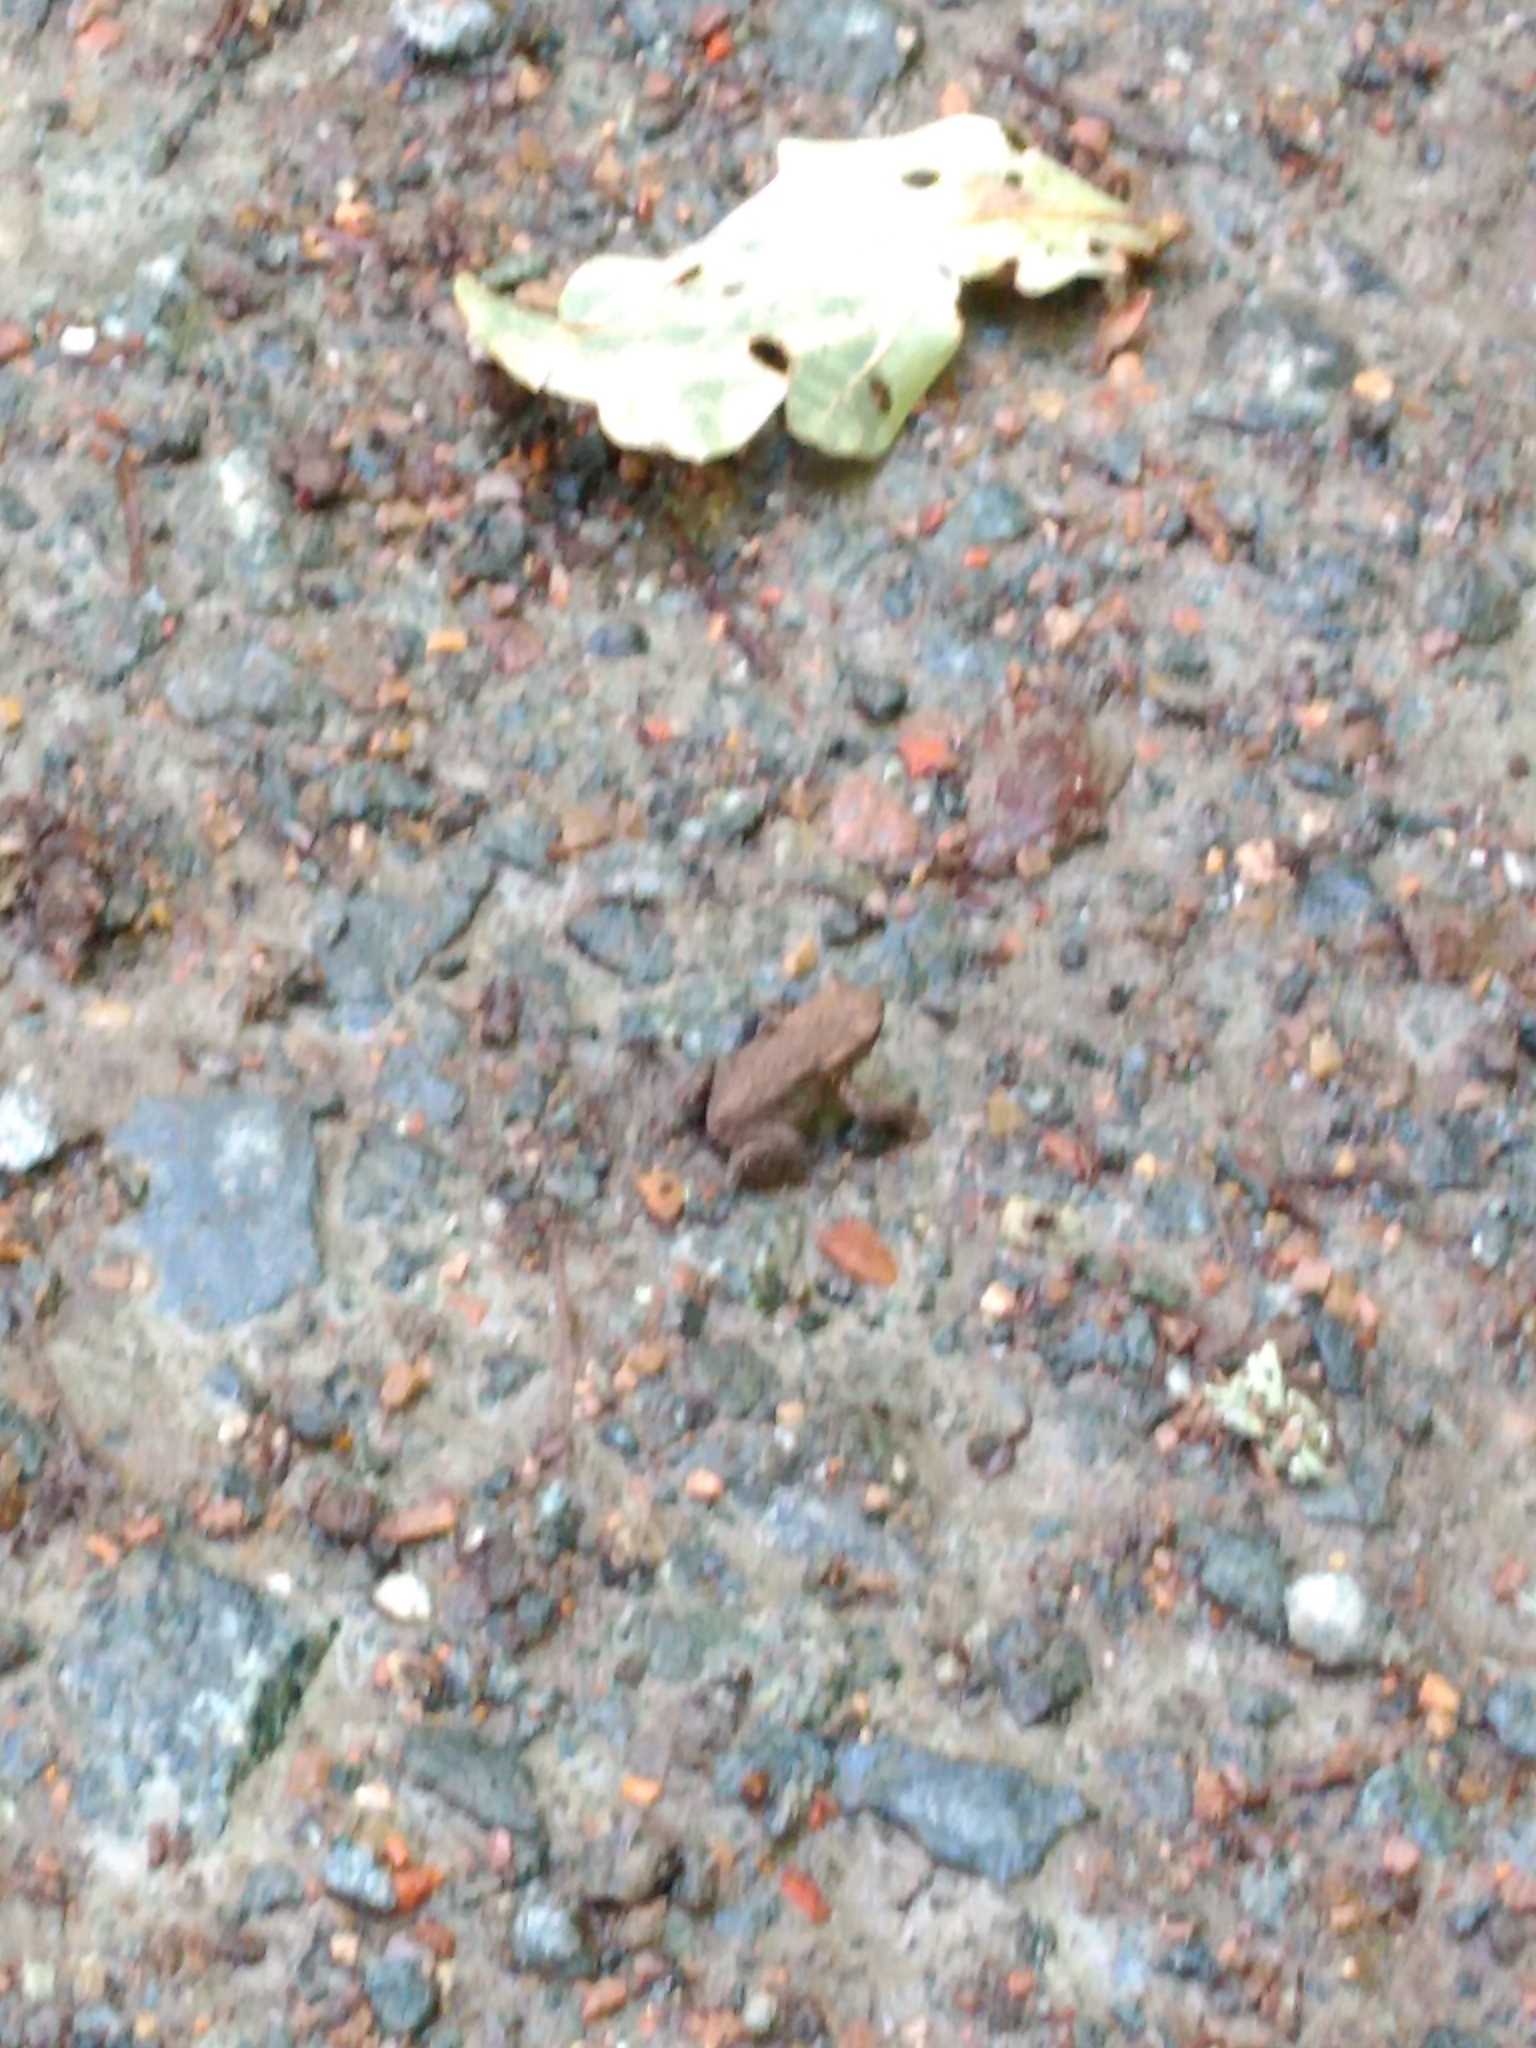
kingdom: Animalia
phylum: Chordata
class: Amphibia
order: Anura
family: Bufonidae
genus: Bufo
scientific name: Bufo bufo
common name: Common toad
